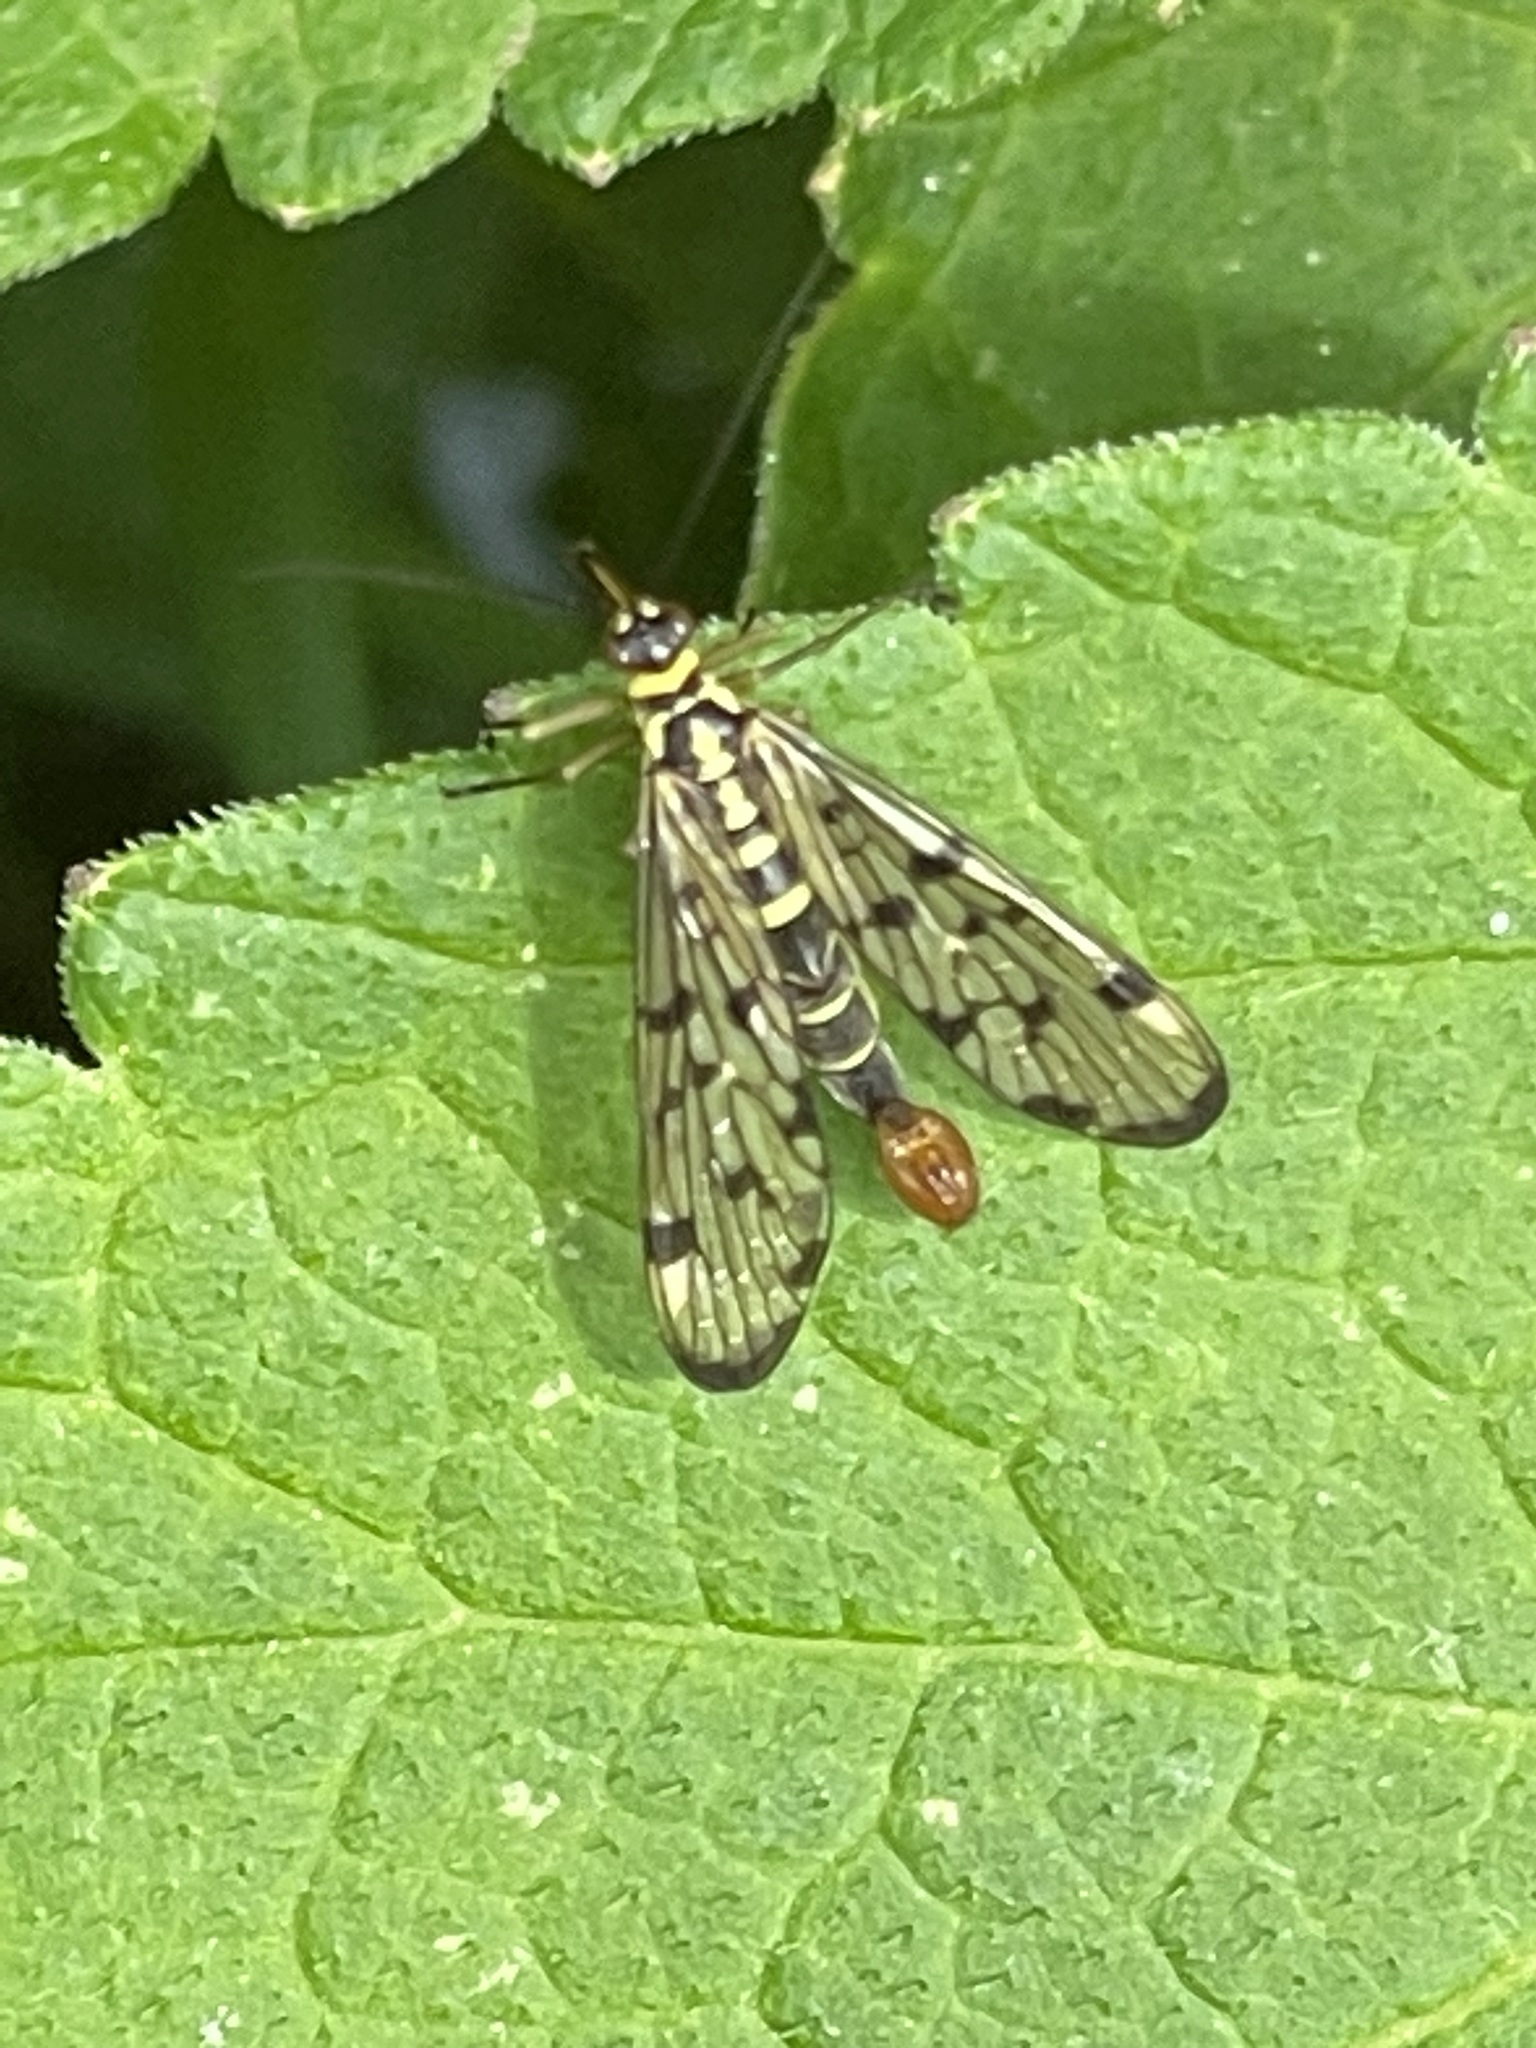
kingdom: Animalia
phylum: Arthropoda
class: Insecta
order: Mecoptera
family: Panorpidae
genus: Panorpa
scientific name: Panorpa germanica
